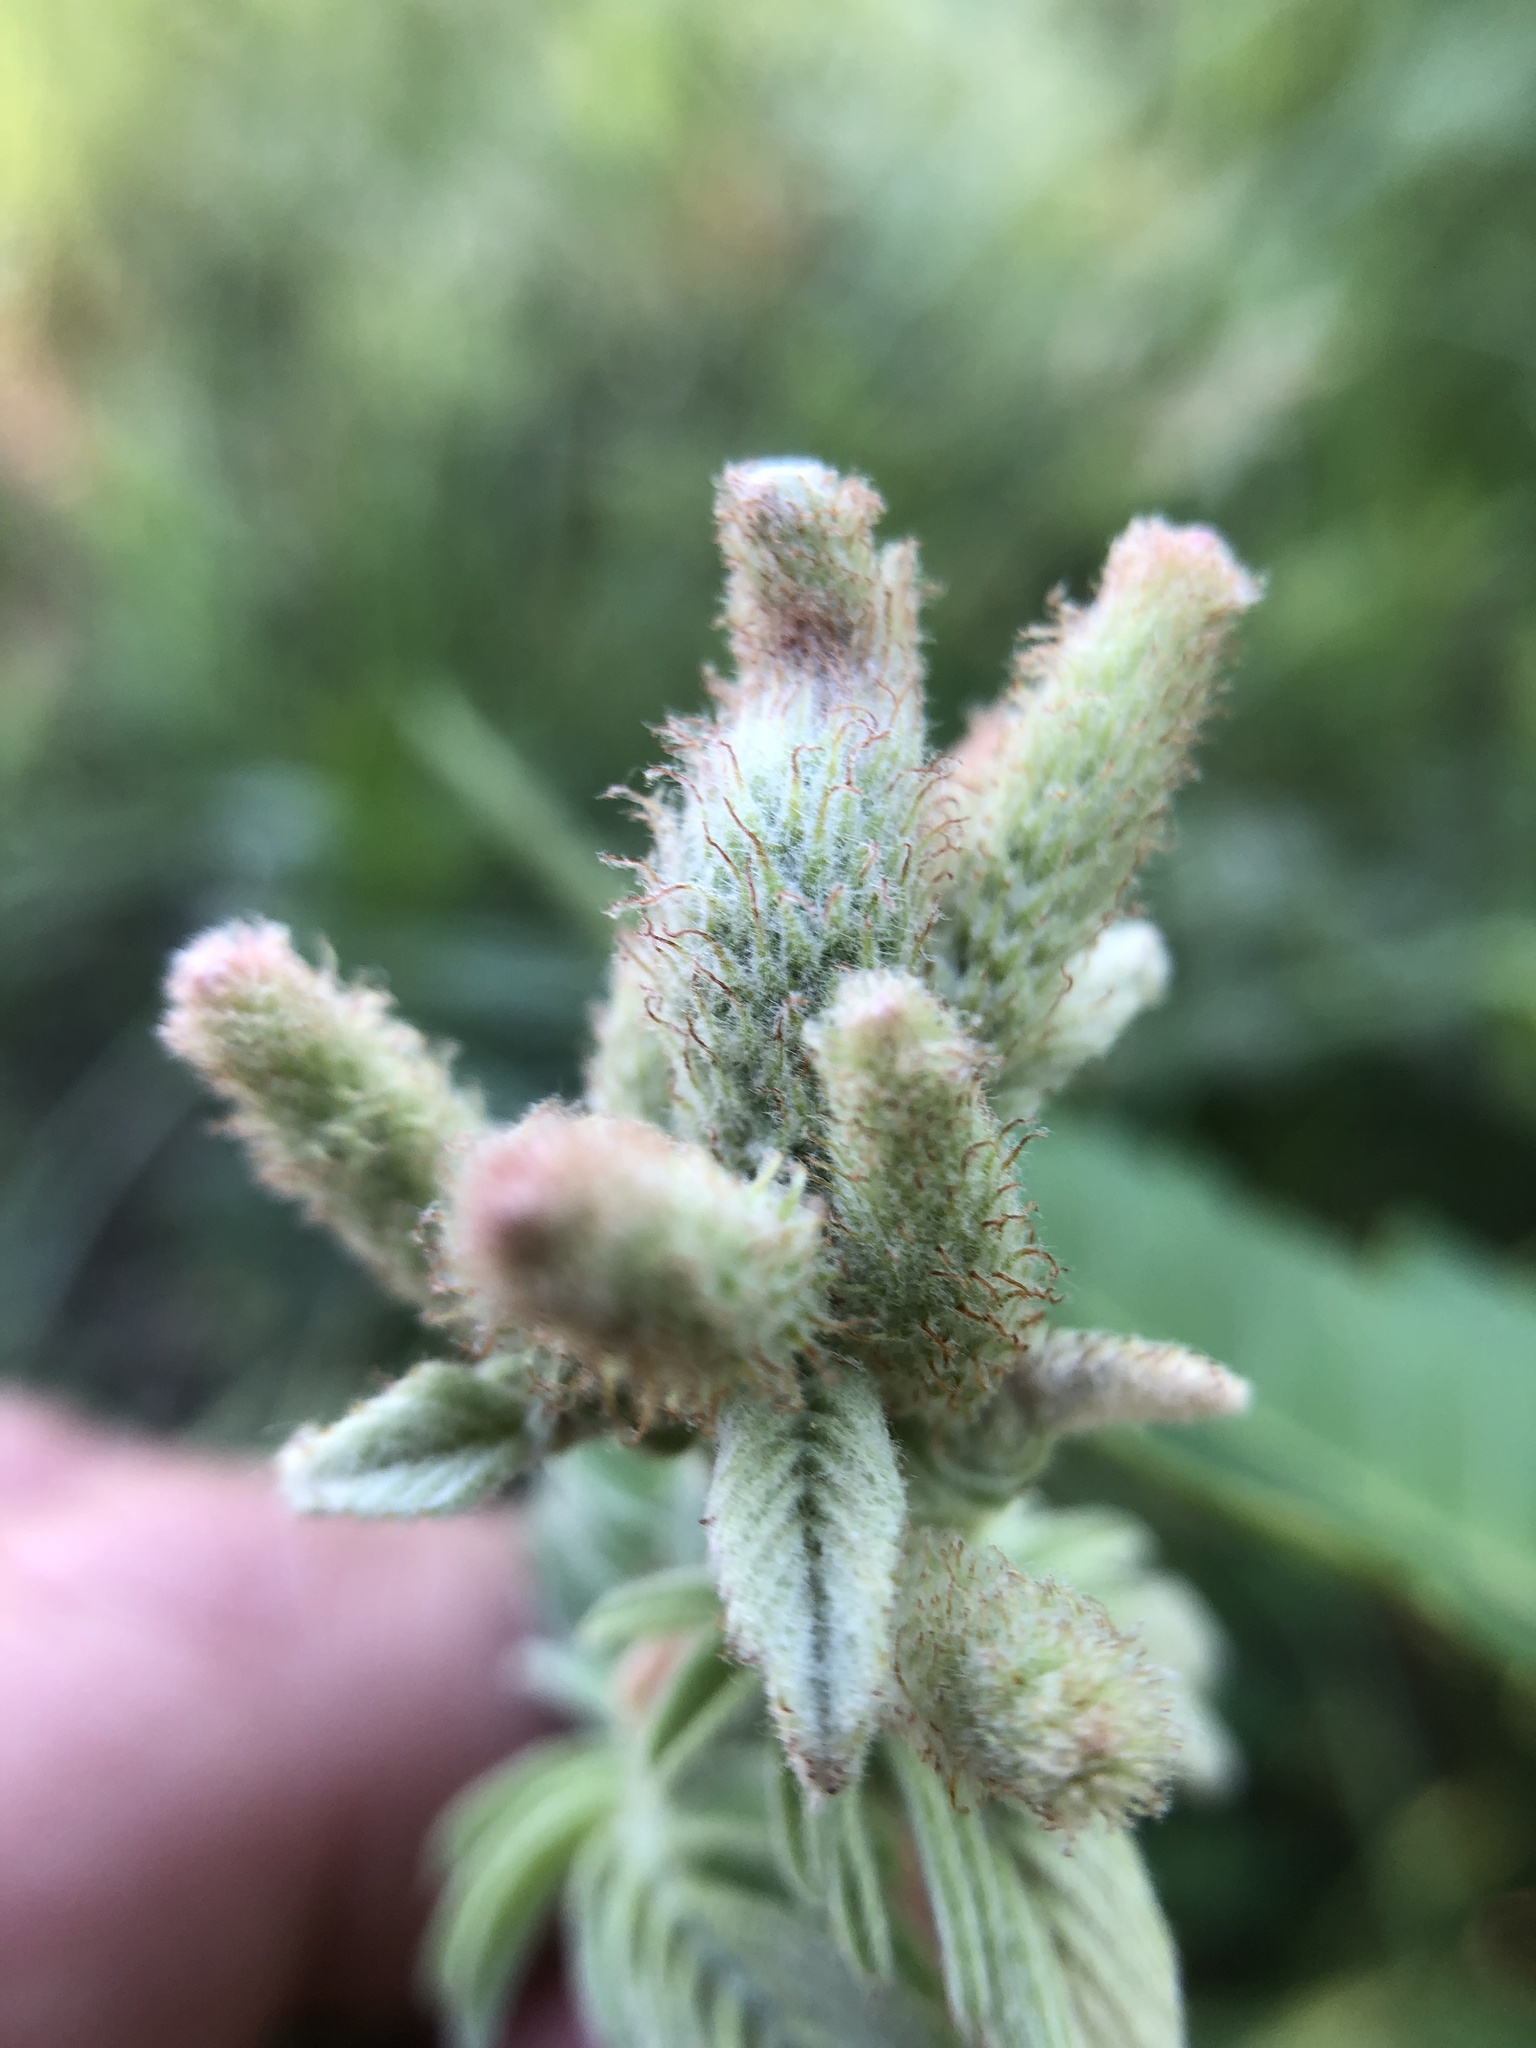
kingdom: Plantae
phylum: Tracheophyta
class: Magnoliopsida
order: Fabales
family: Fabaceae
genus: Amorpha
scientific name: Amorpha canescens
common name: Leadplant
